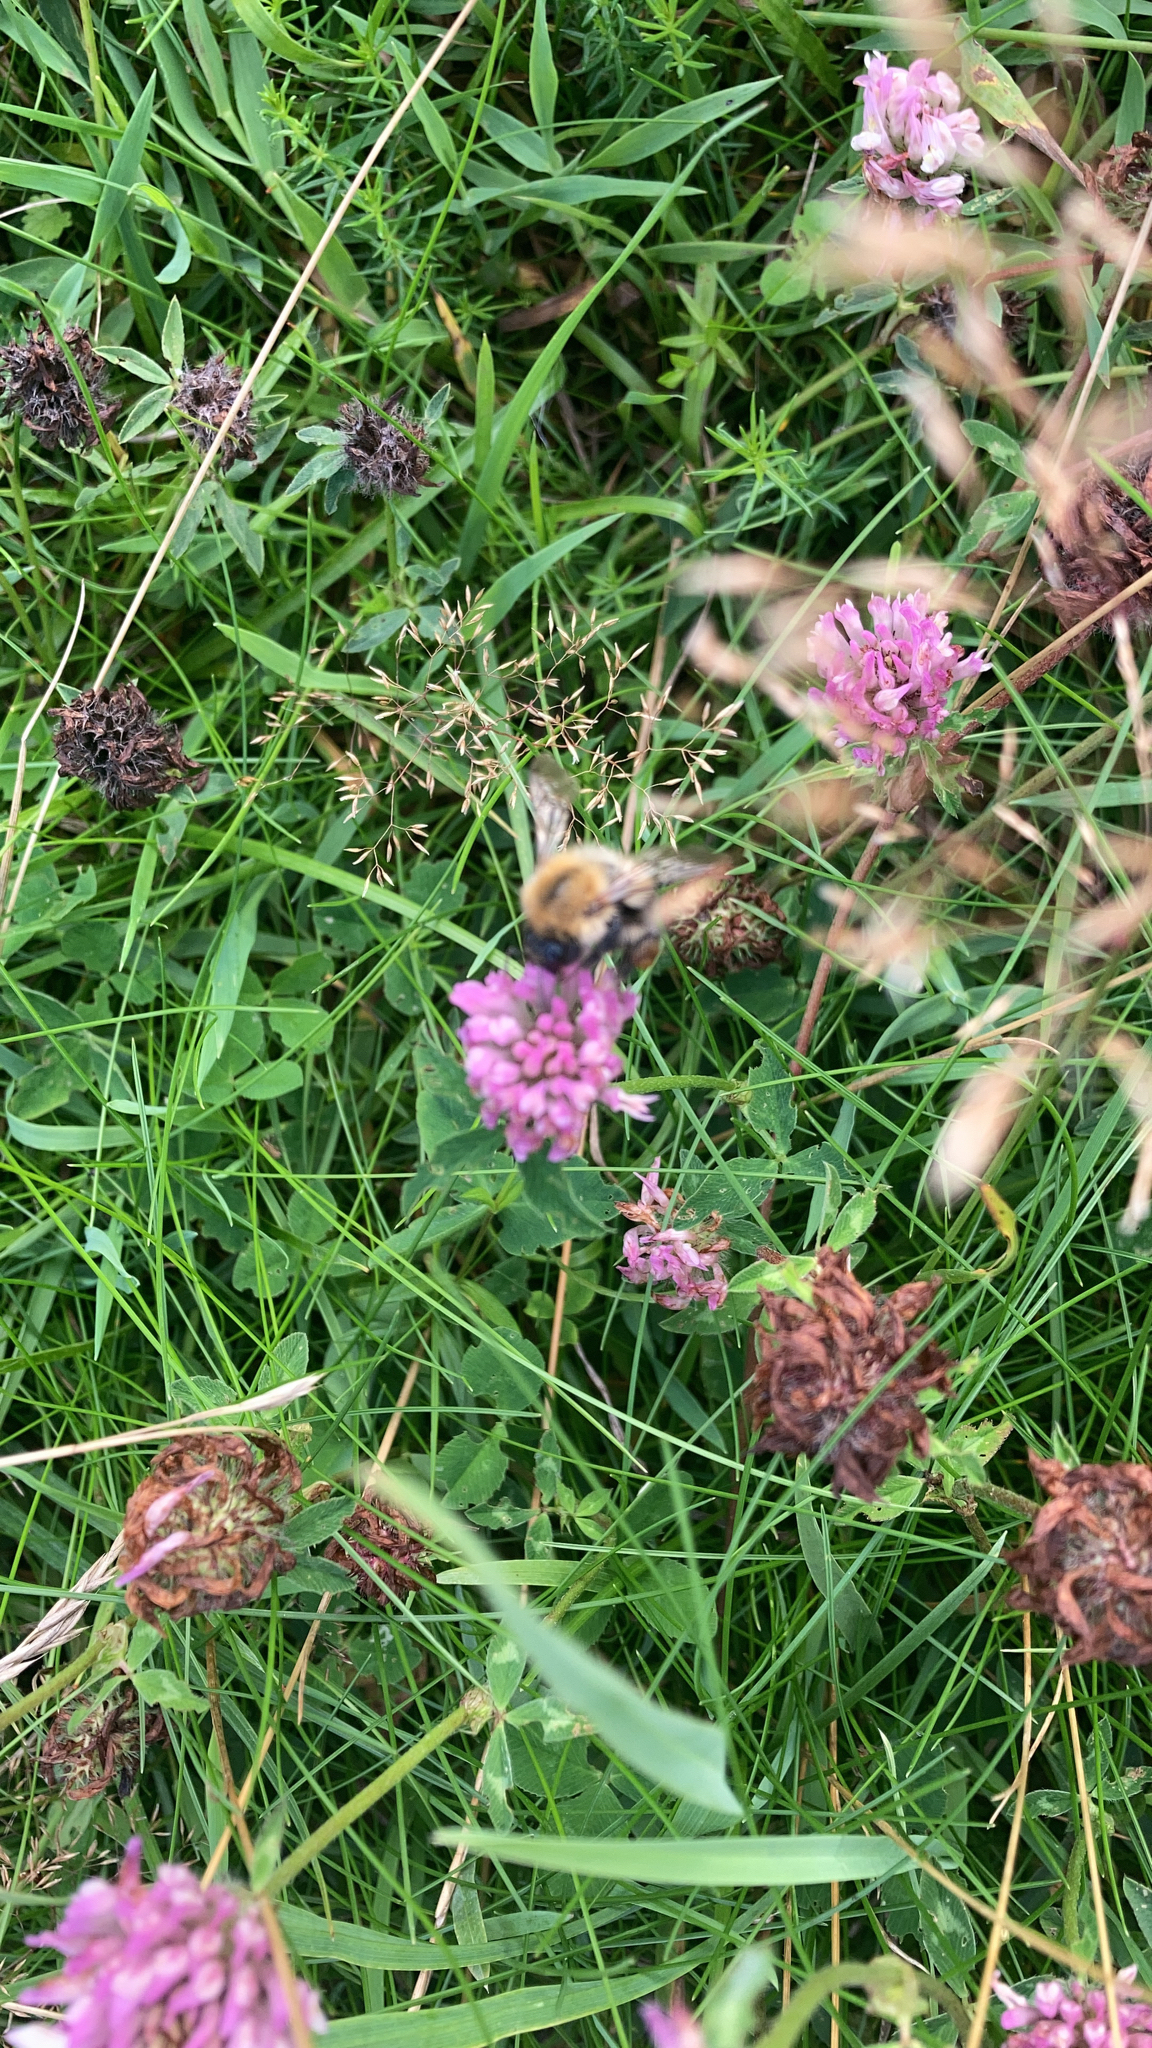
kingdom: Animalia
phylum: Arthropoda
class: Insecta
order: Hymenoptera
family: Apidae
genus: Bombus
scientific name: Bombus pascuorum
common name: Common carder bee
